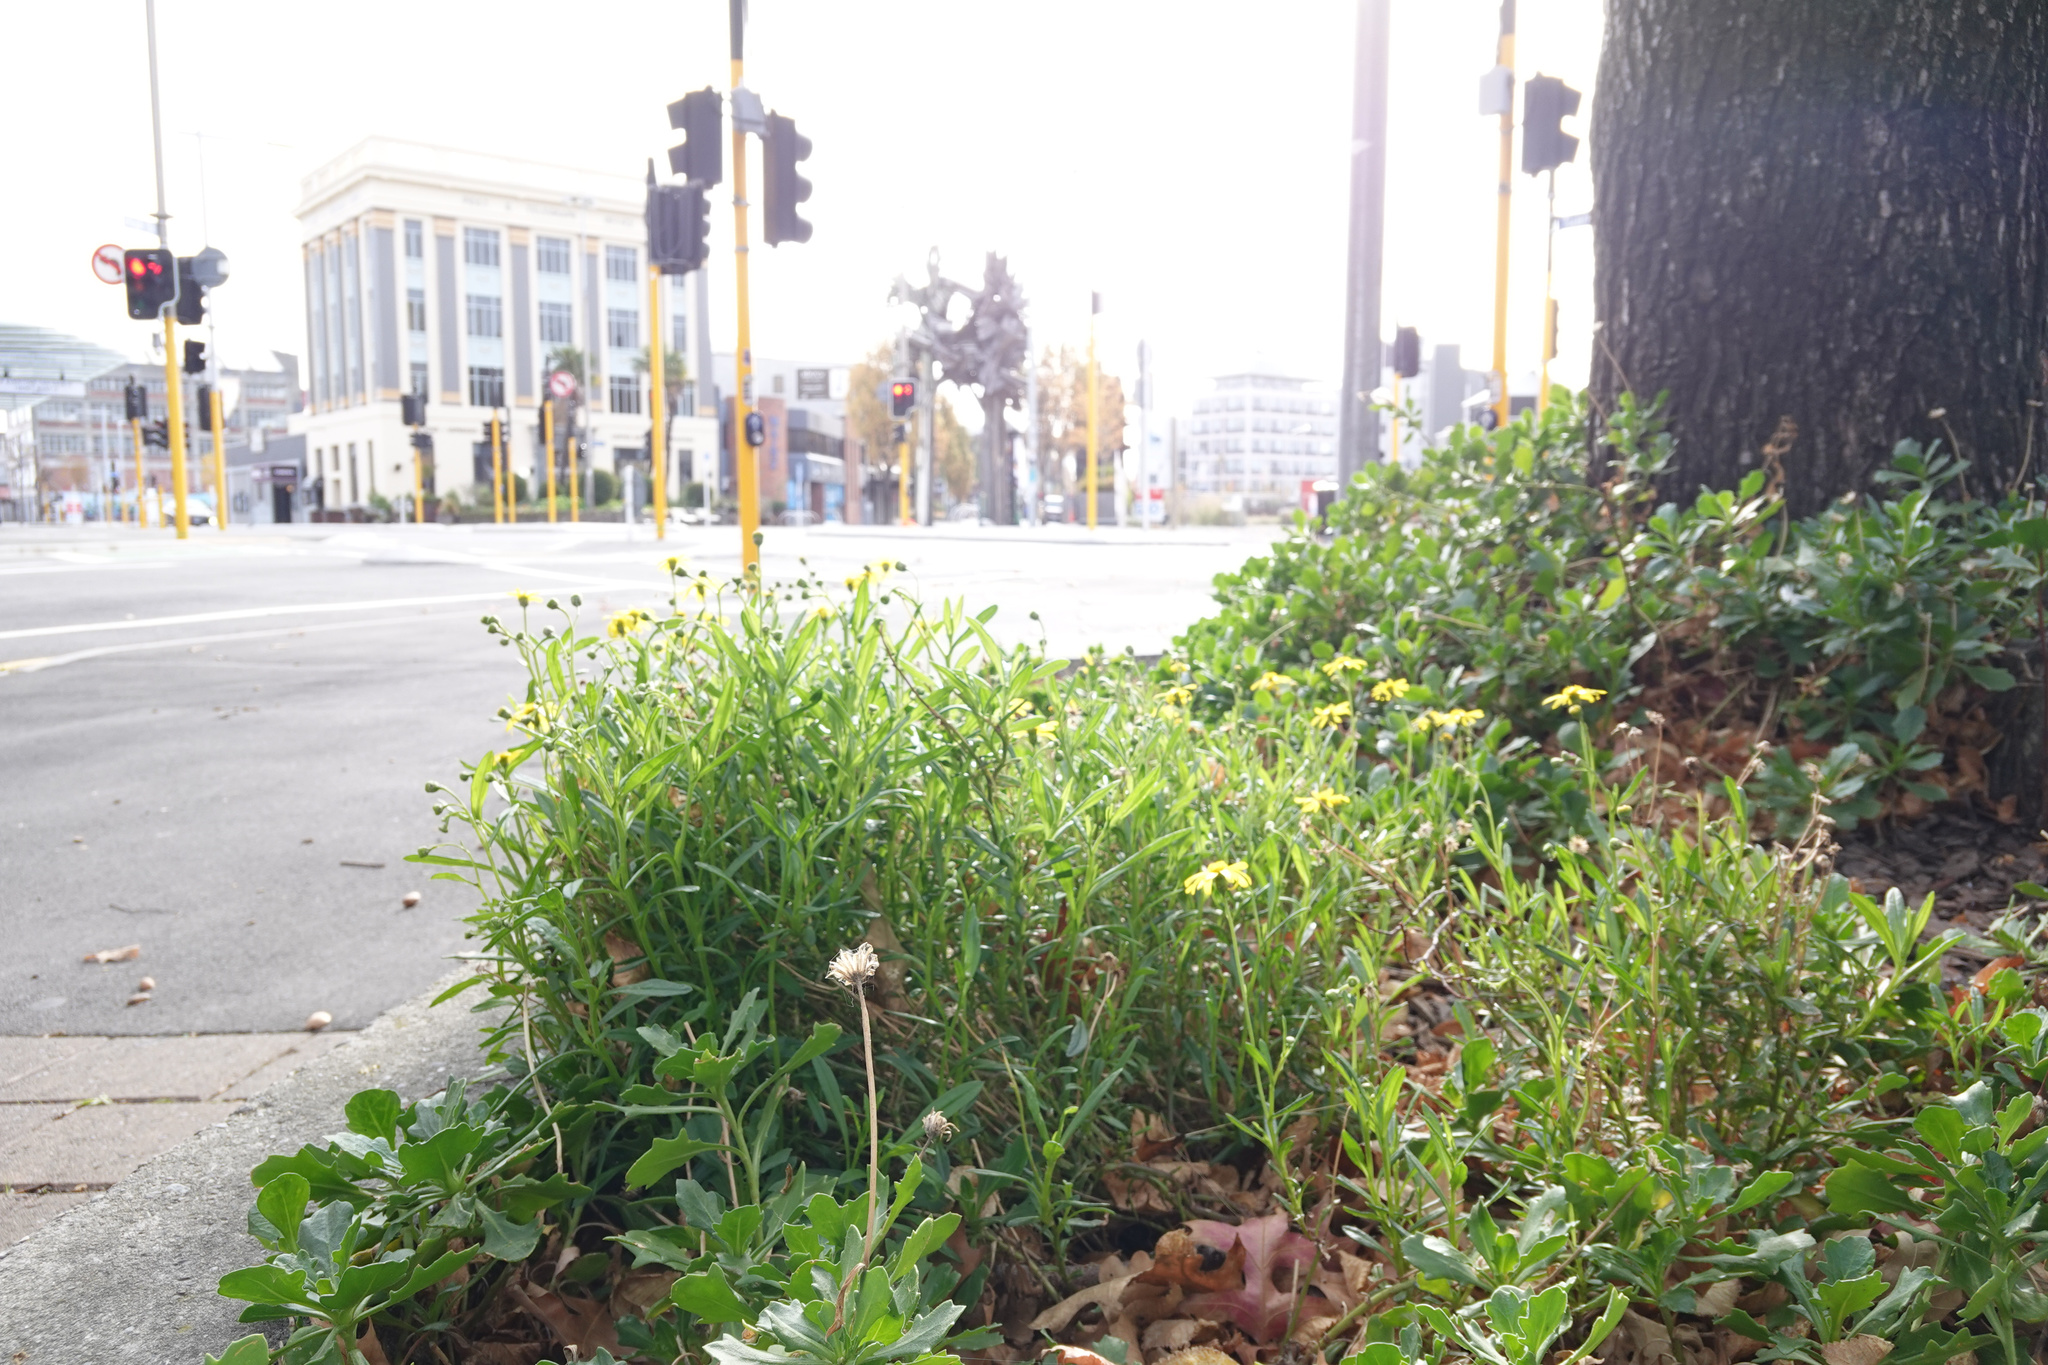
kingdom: Plantae
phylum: Tracheophyta
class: Magnoliopsida
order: Asterales
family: Asteraceae
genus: Senecio
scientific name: Senecio skirrhodon
